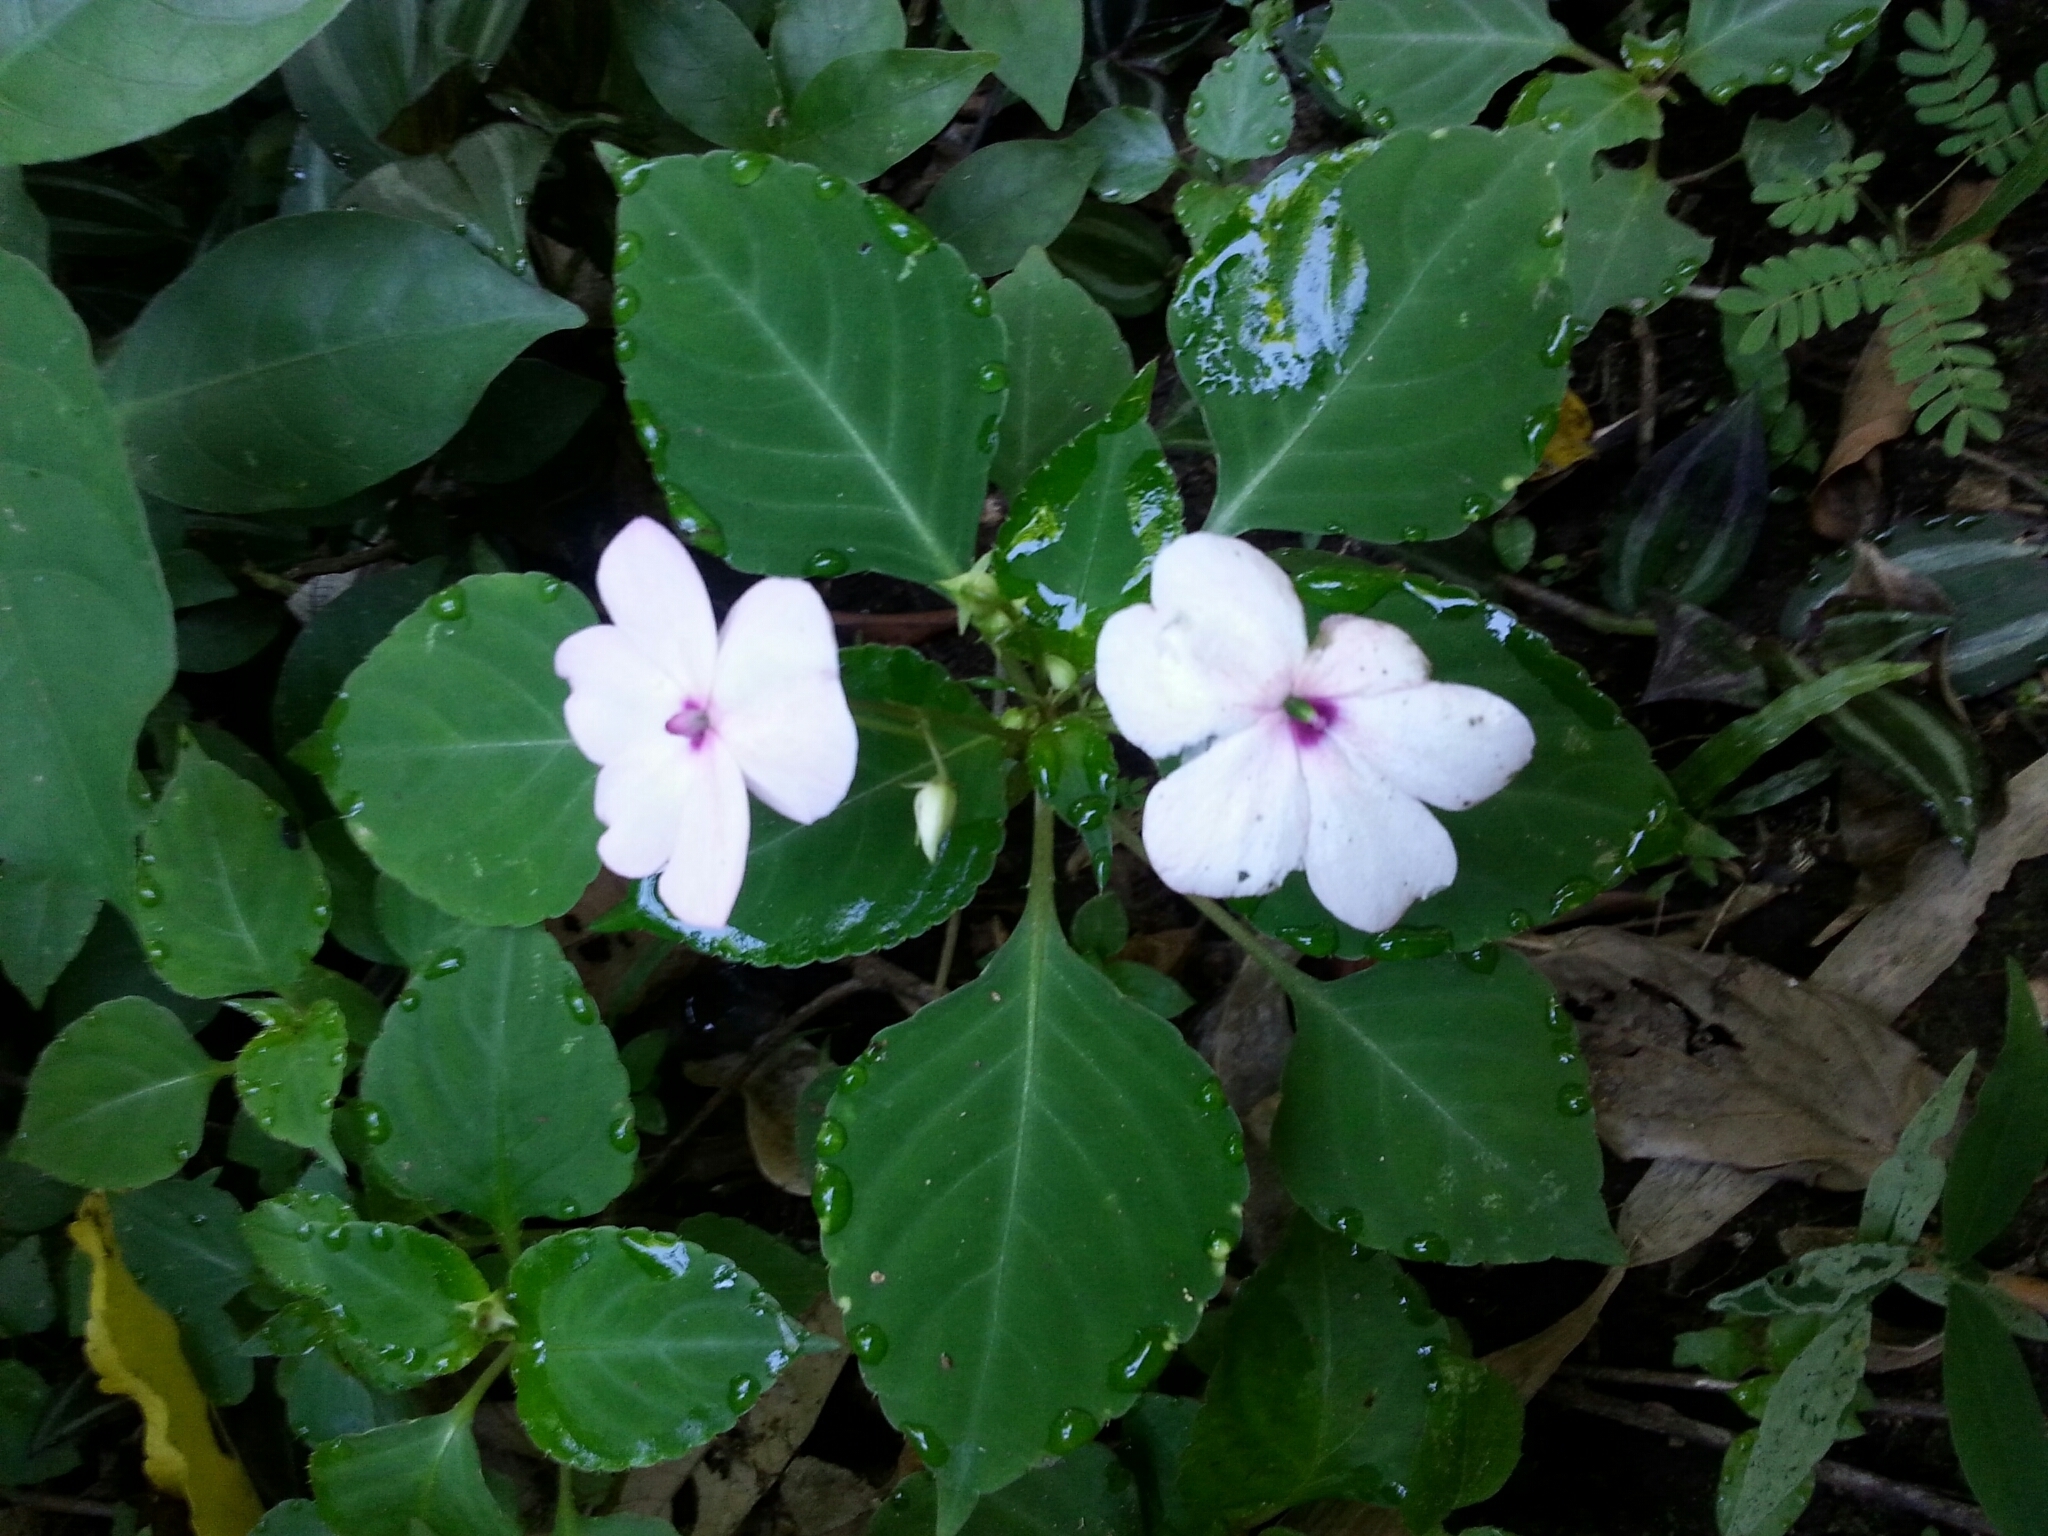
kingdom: Plantae
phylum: Tracheophyta
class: Magnoliopsida
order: Ericales
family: Balsaminaceae
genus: Impatiens
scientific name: Impatiens walleriana
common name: Buzzy lizzy
